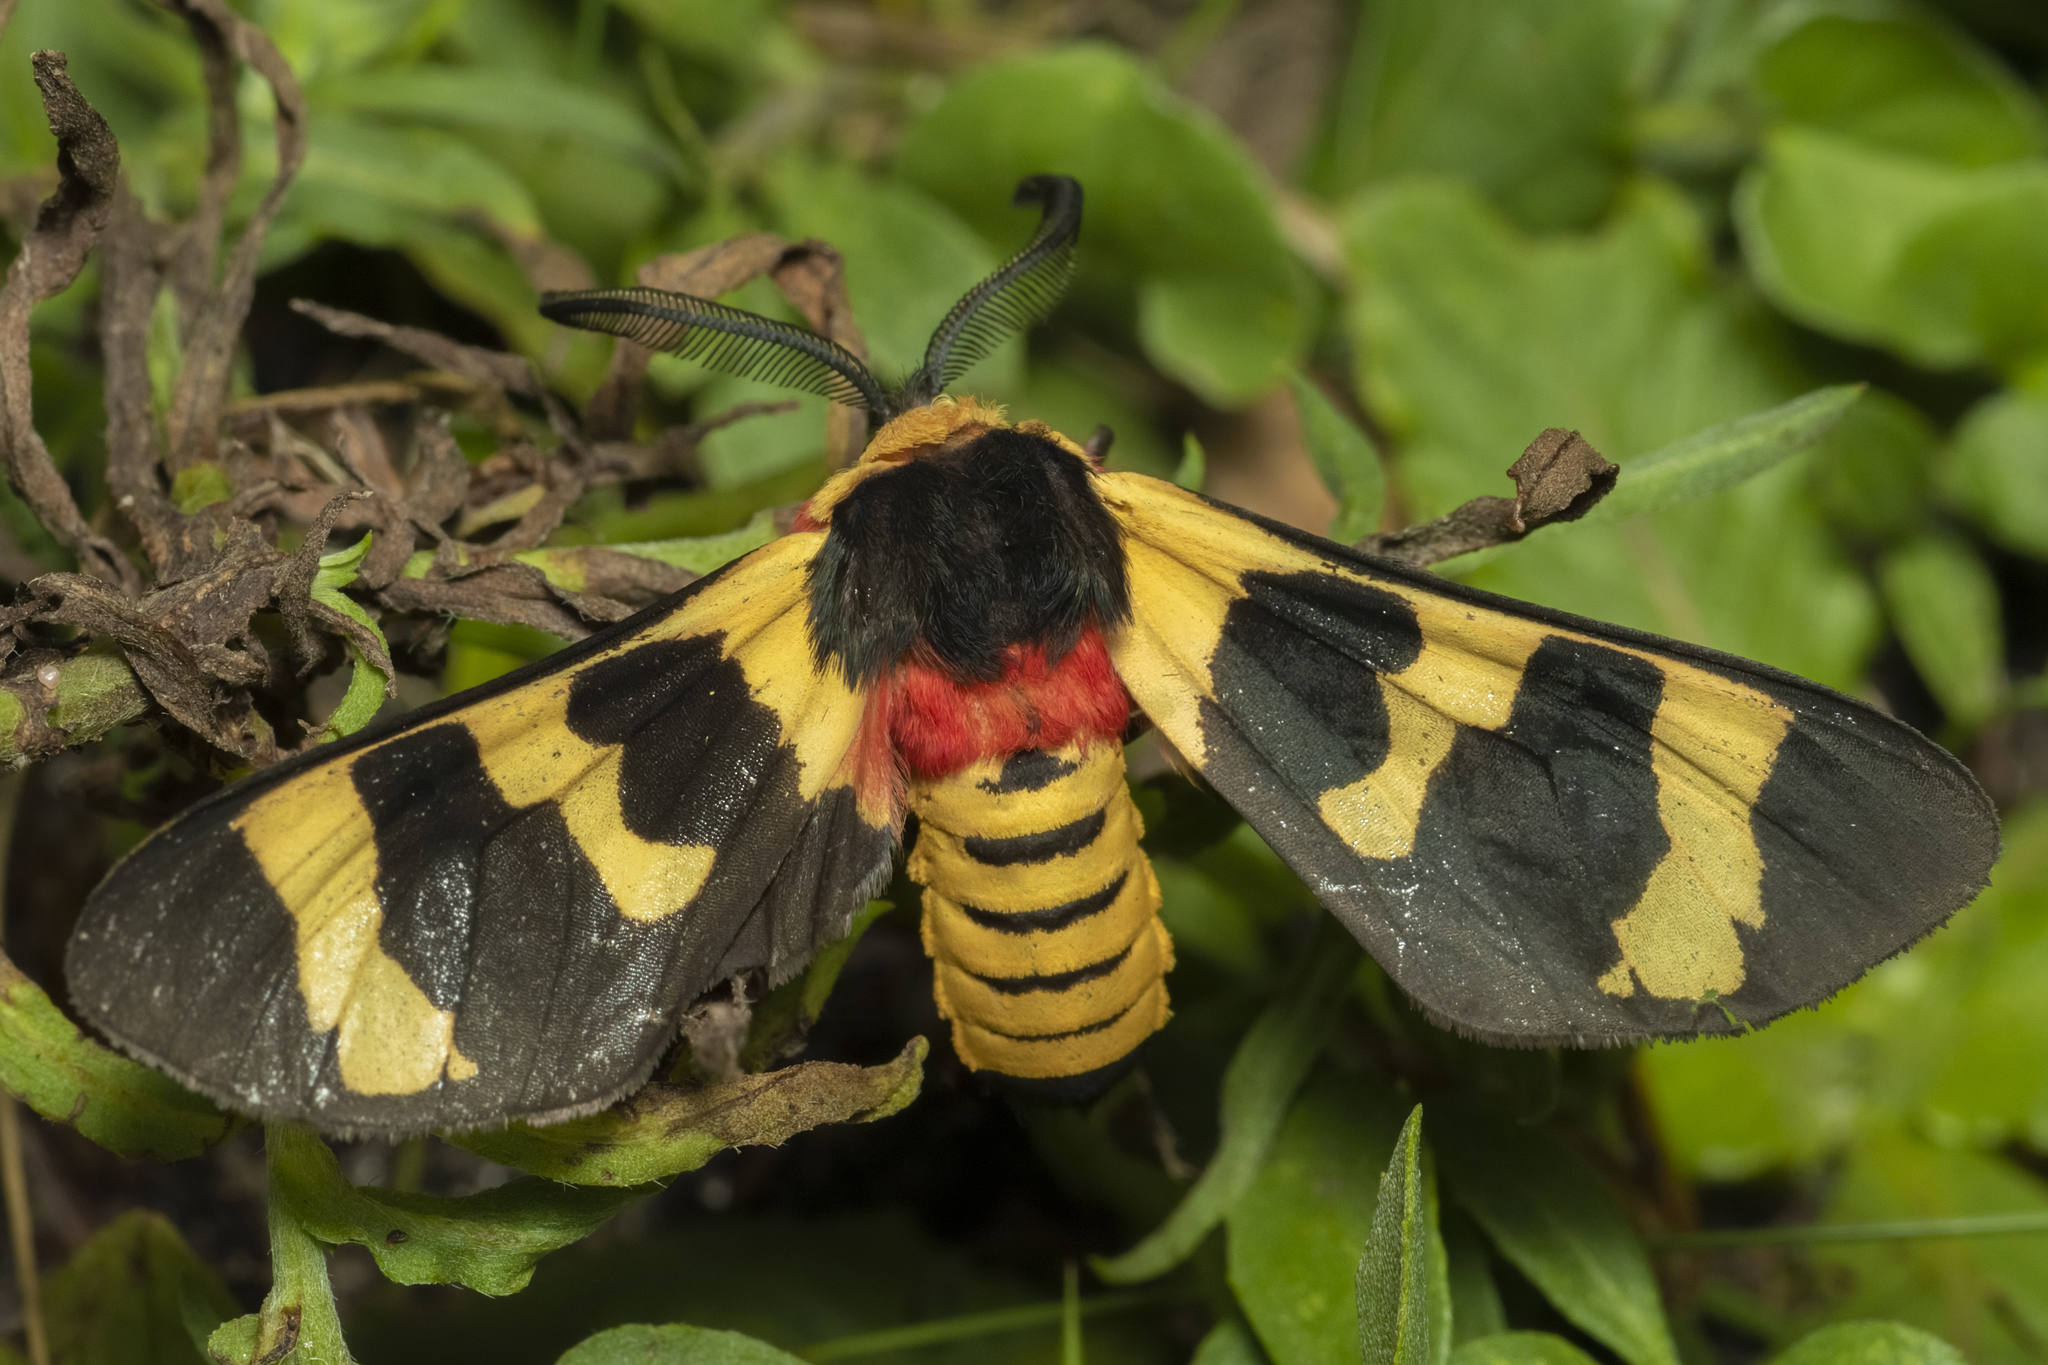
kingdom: Animalia
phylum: Arthropoda
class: Insecta
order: Lepidoptera
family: Erebidae
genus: Eurata
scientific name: Eurata hilaris
